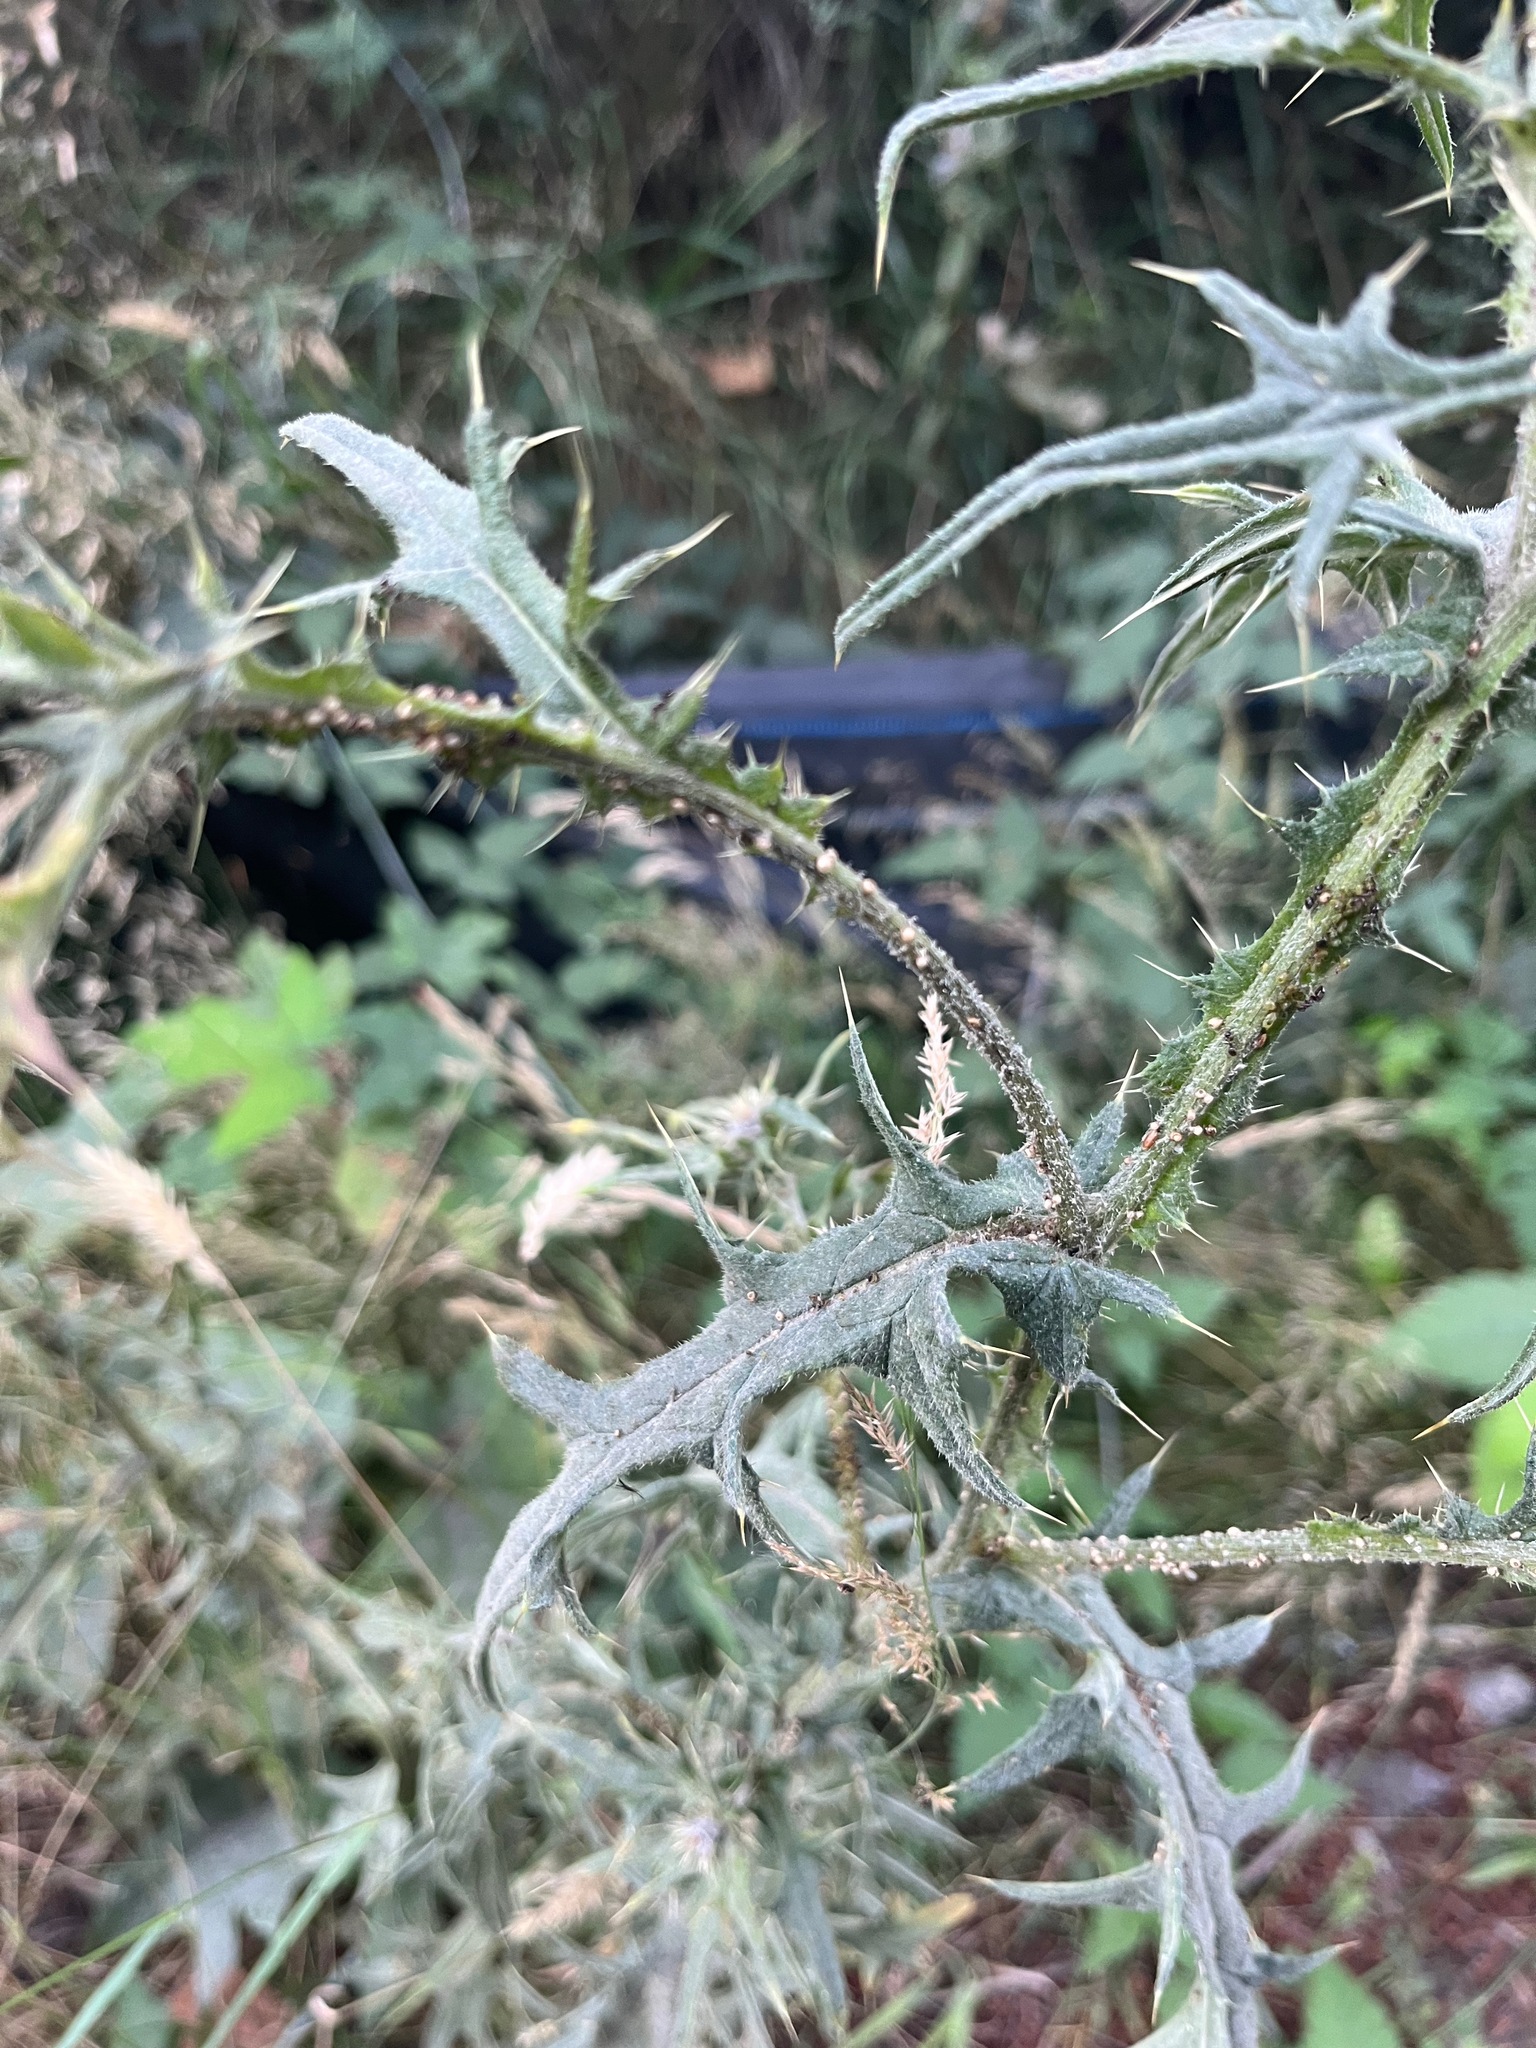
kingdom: Plantae
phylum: Tracheophyta
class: Magnoliopsida
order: Asterales
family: Asteraceae
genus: Cirsium
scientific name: Cirsium vulgare
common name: Bull thistle
